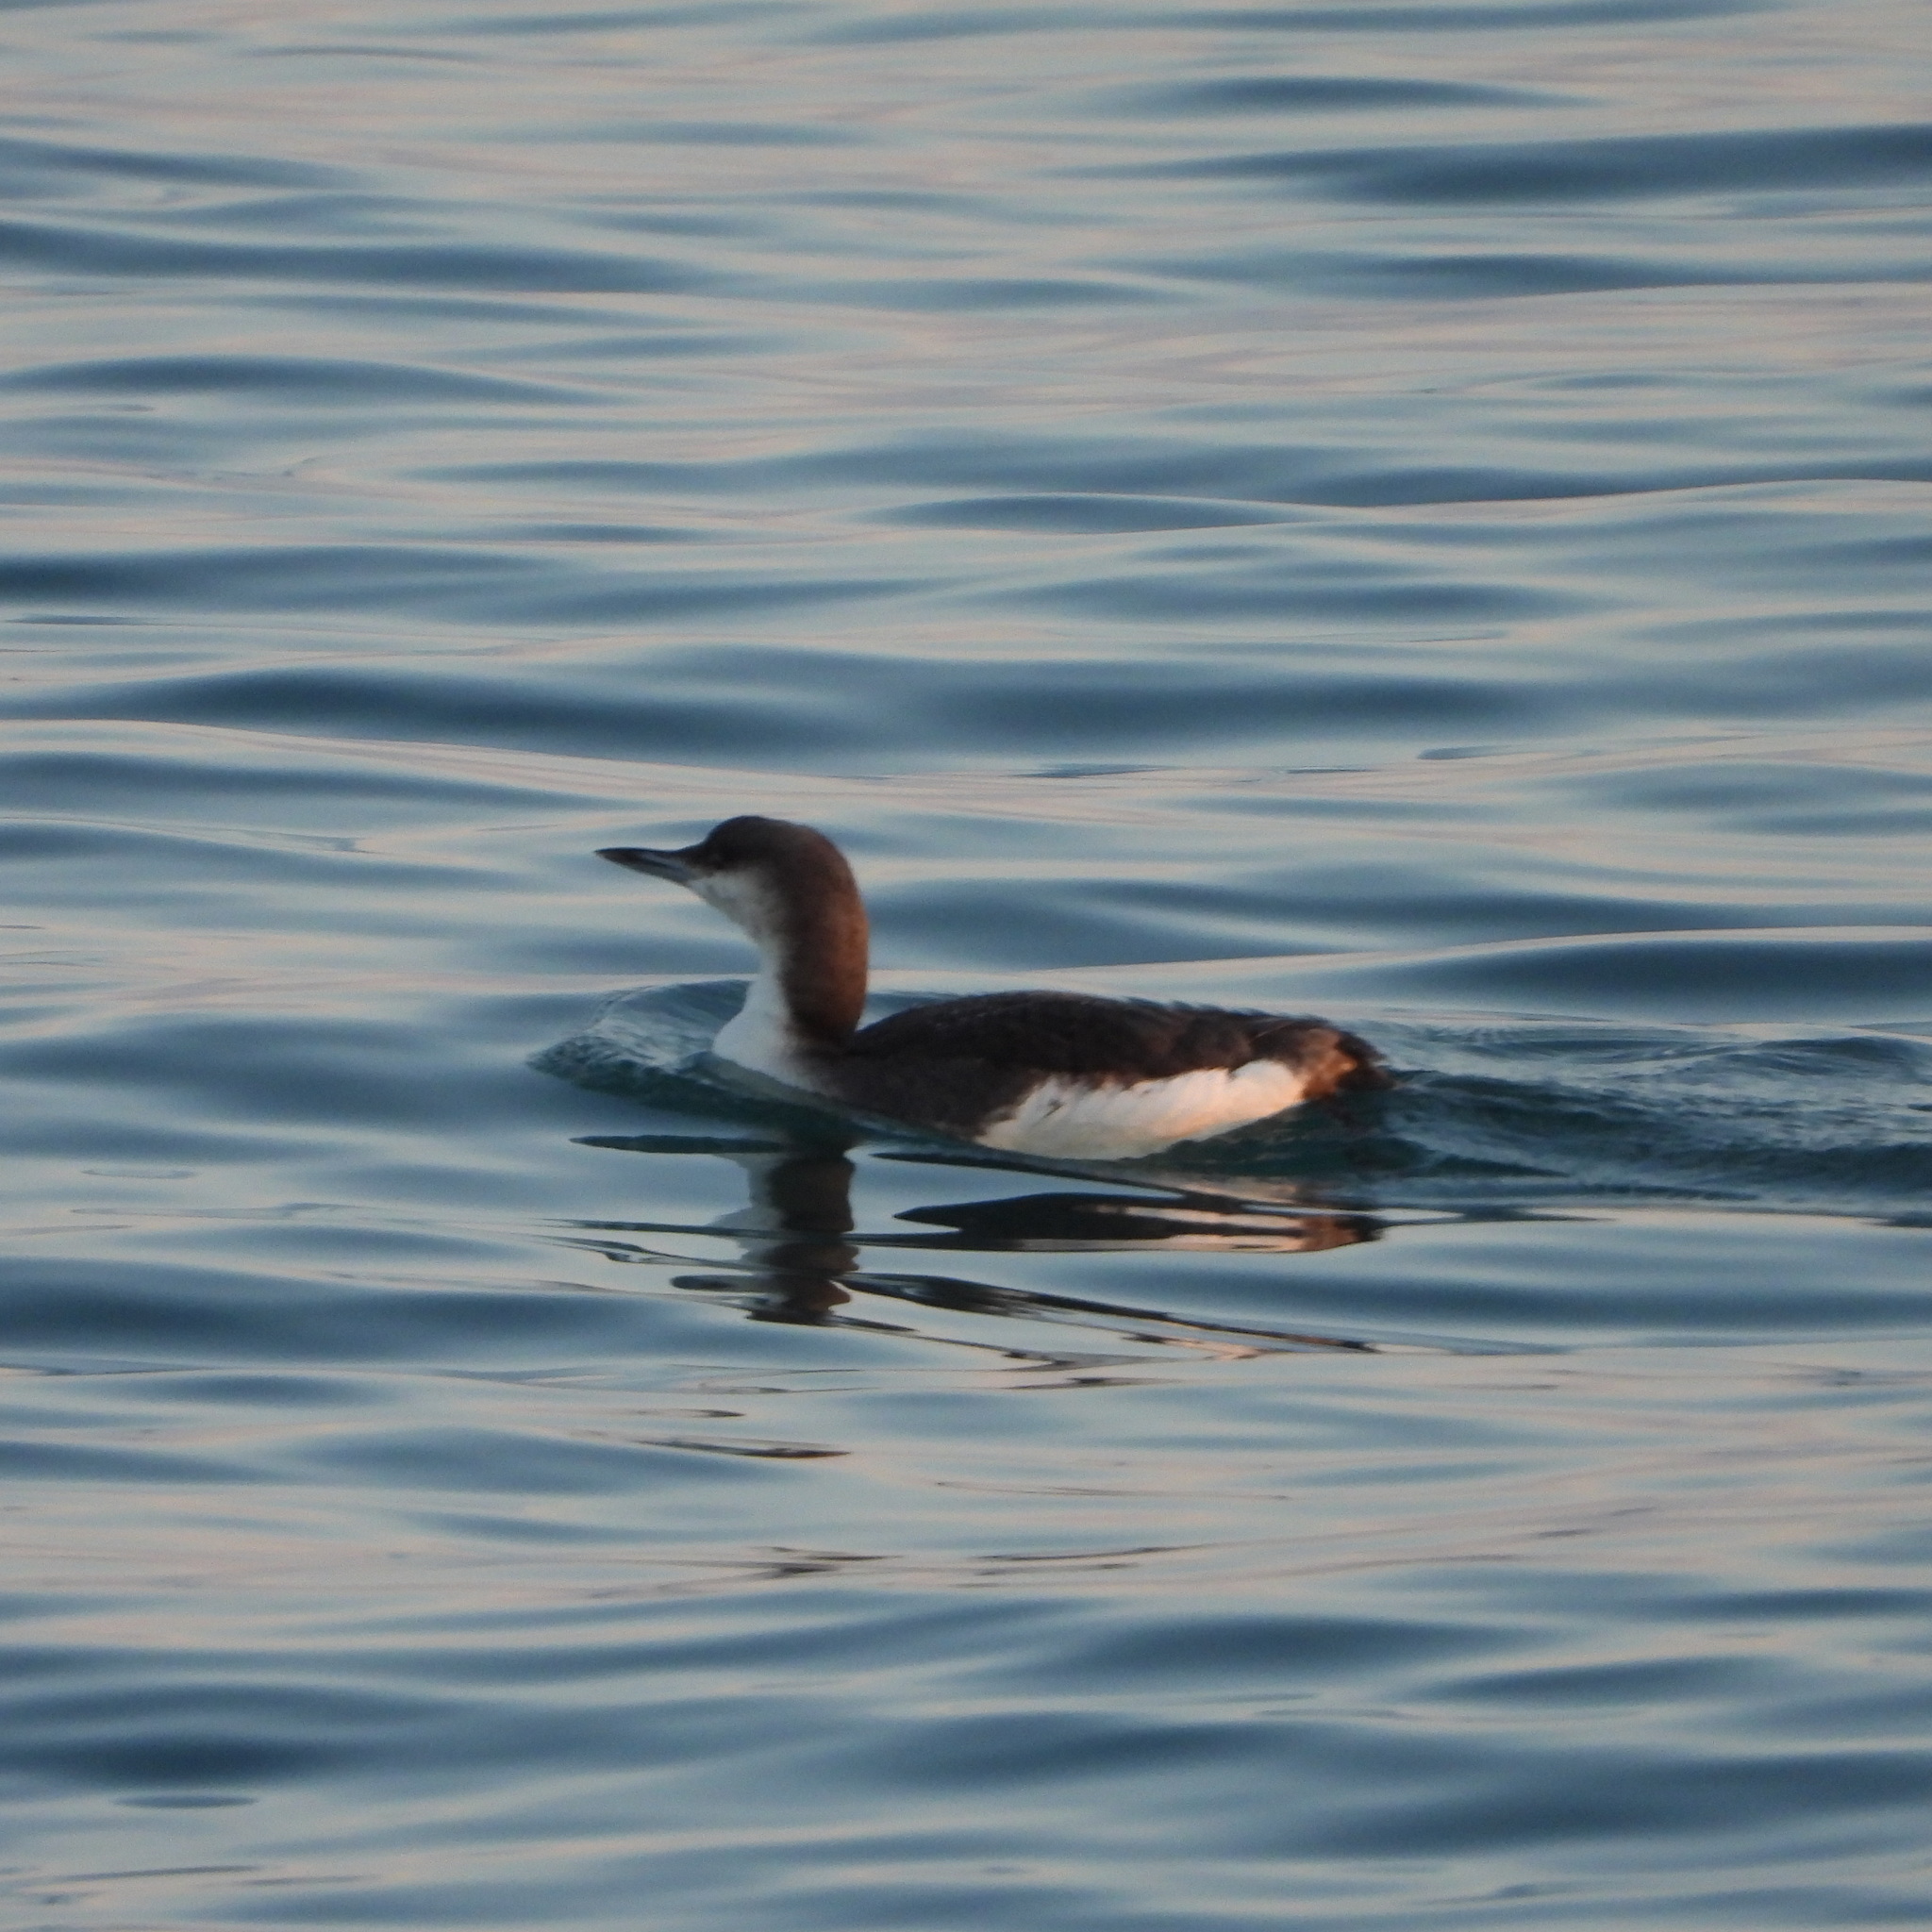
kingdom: Animalia
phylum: Chordata
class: Aves
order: Gaviiformes
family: Gaviidae
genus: Gavia
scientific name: Gavia arctica
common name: Black-throated loon
